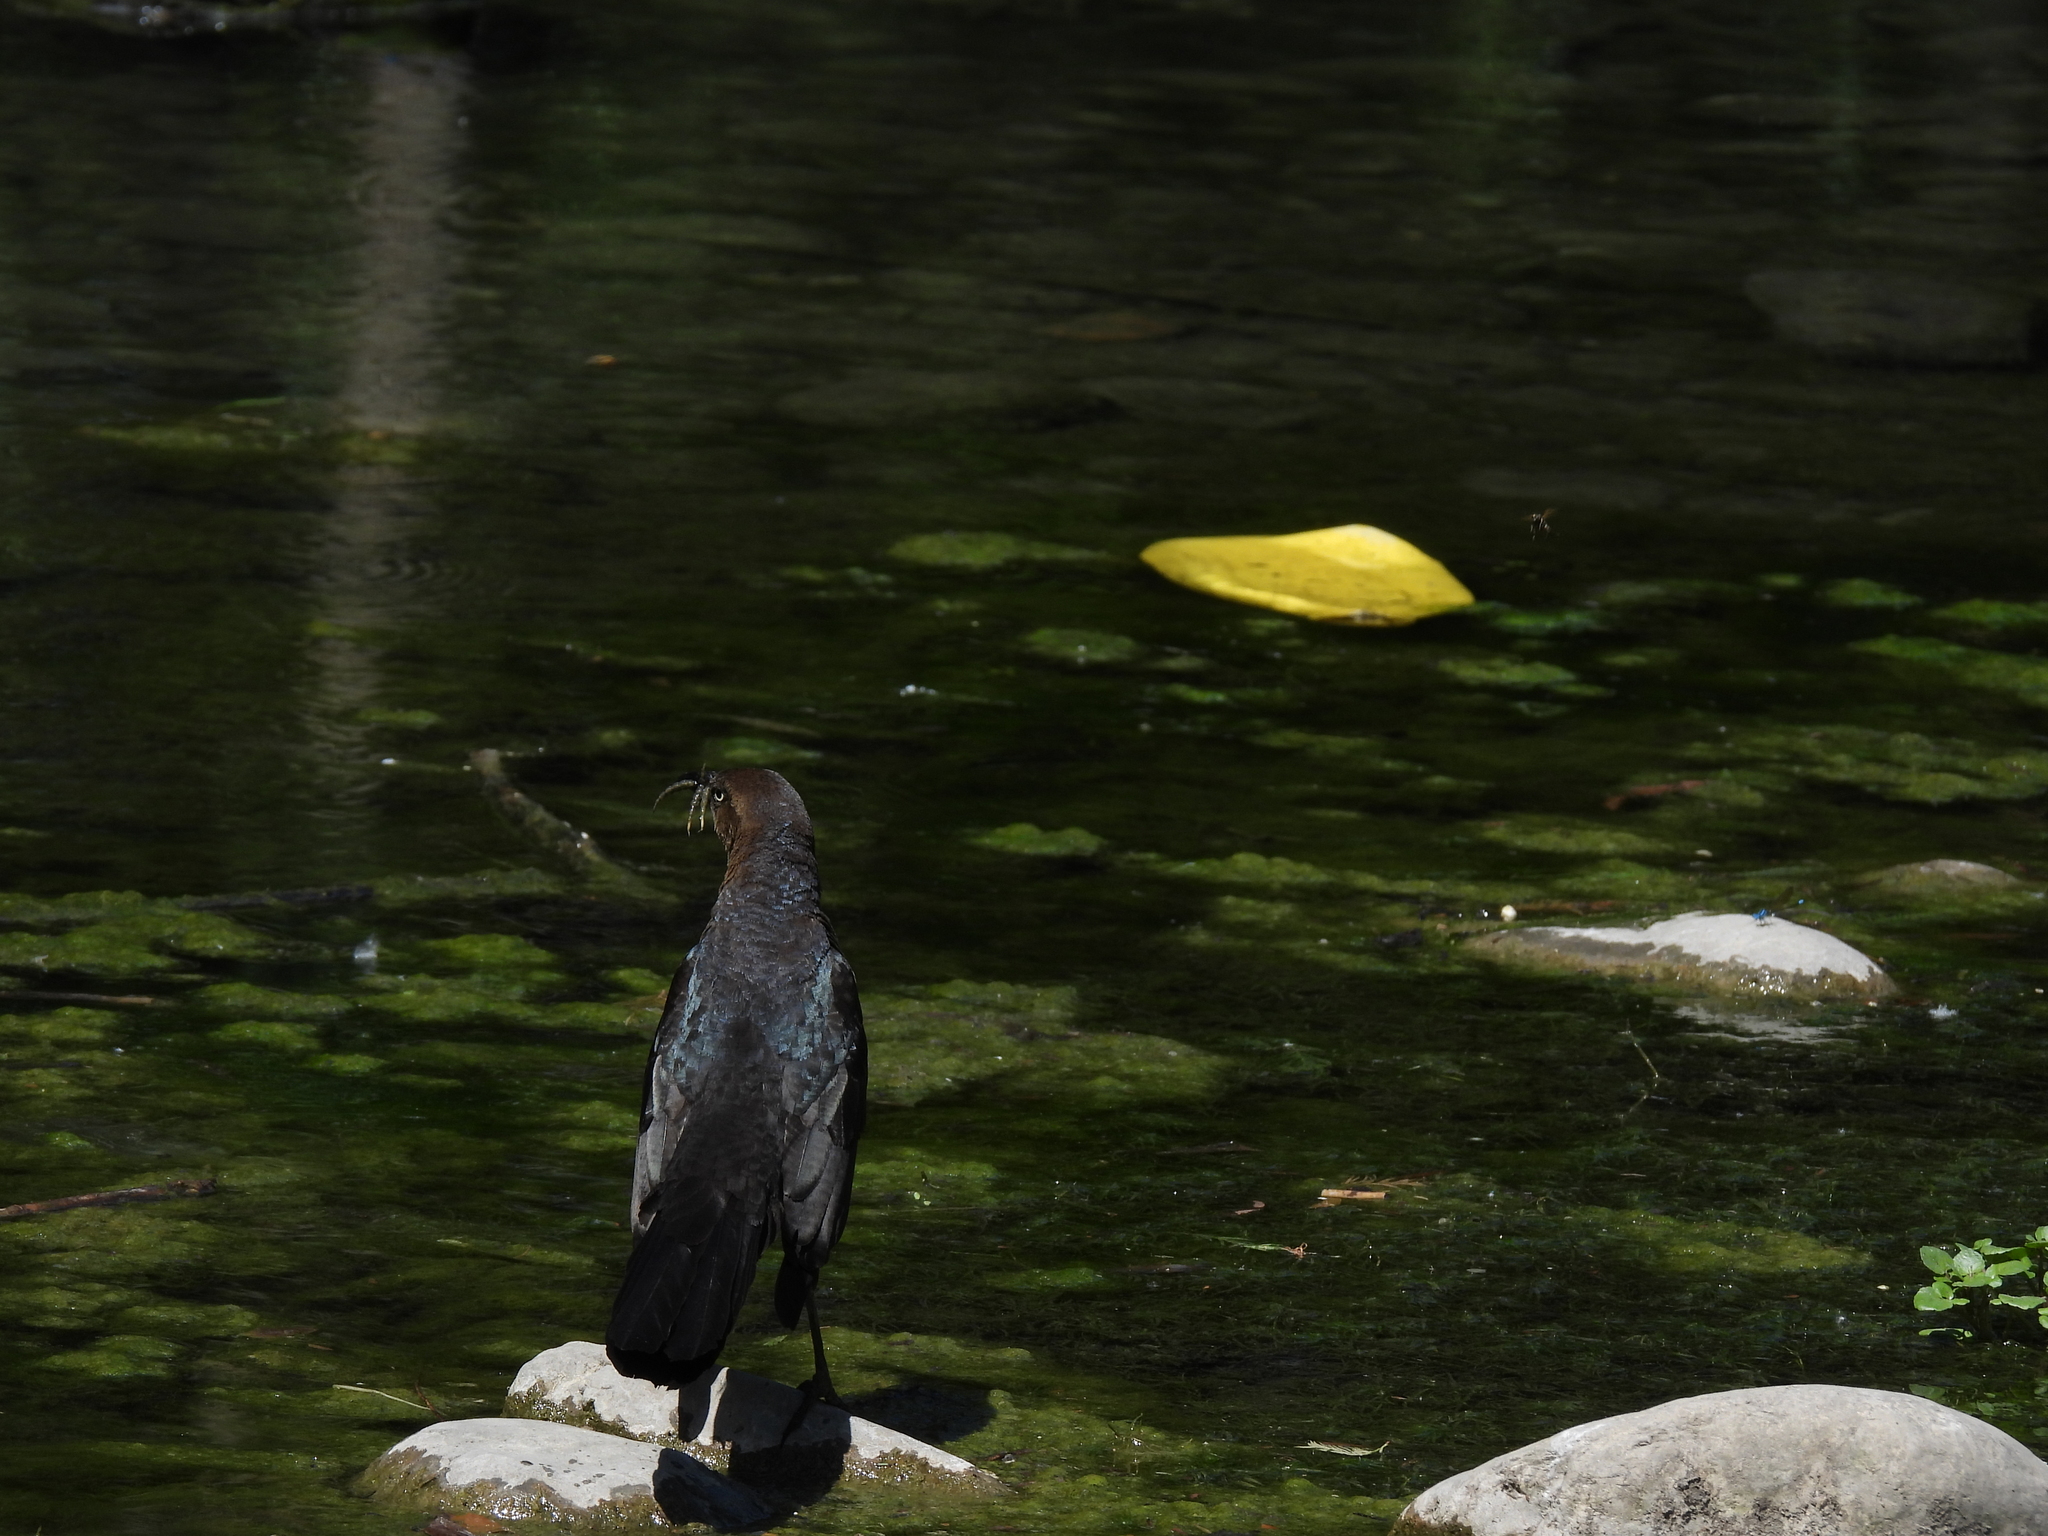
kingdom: Animalia
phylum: Chordata
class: Aves
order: Passeriformes
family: Icteridae
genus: Quiscalus
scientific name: Quiscalus mexicanus
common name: Great-tailed grackle
